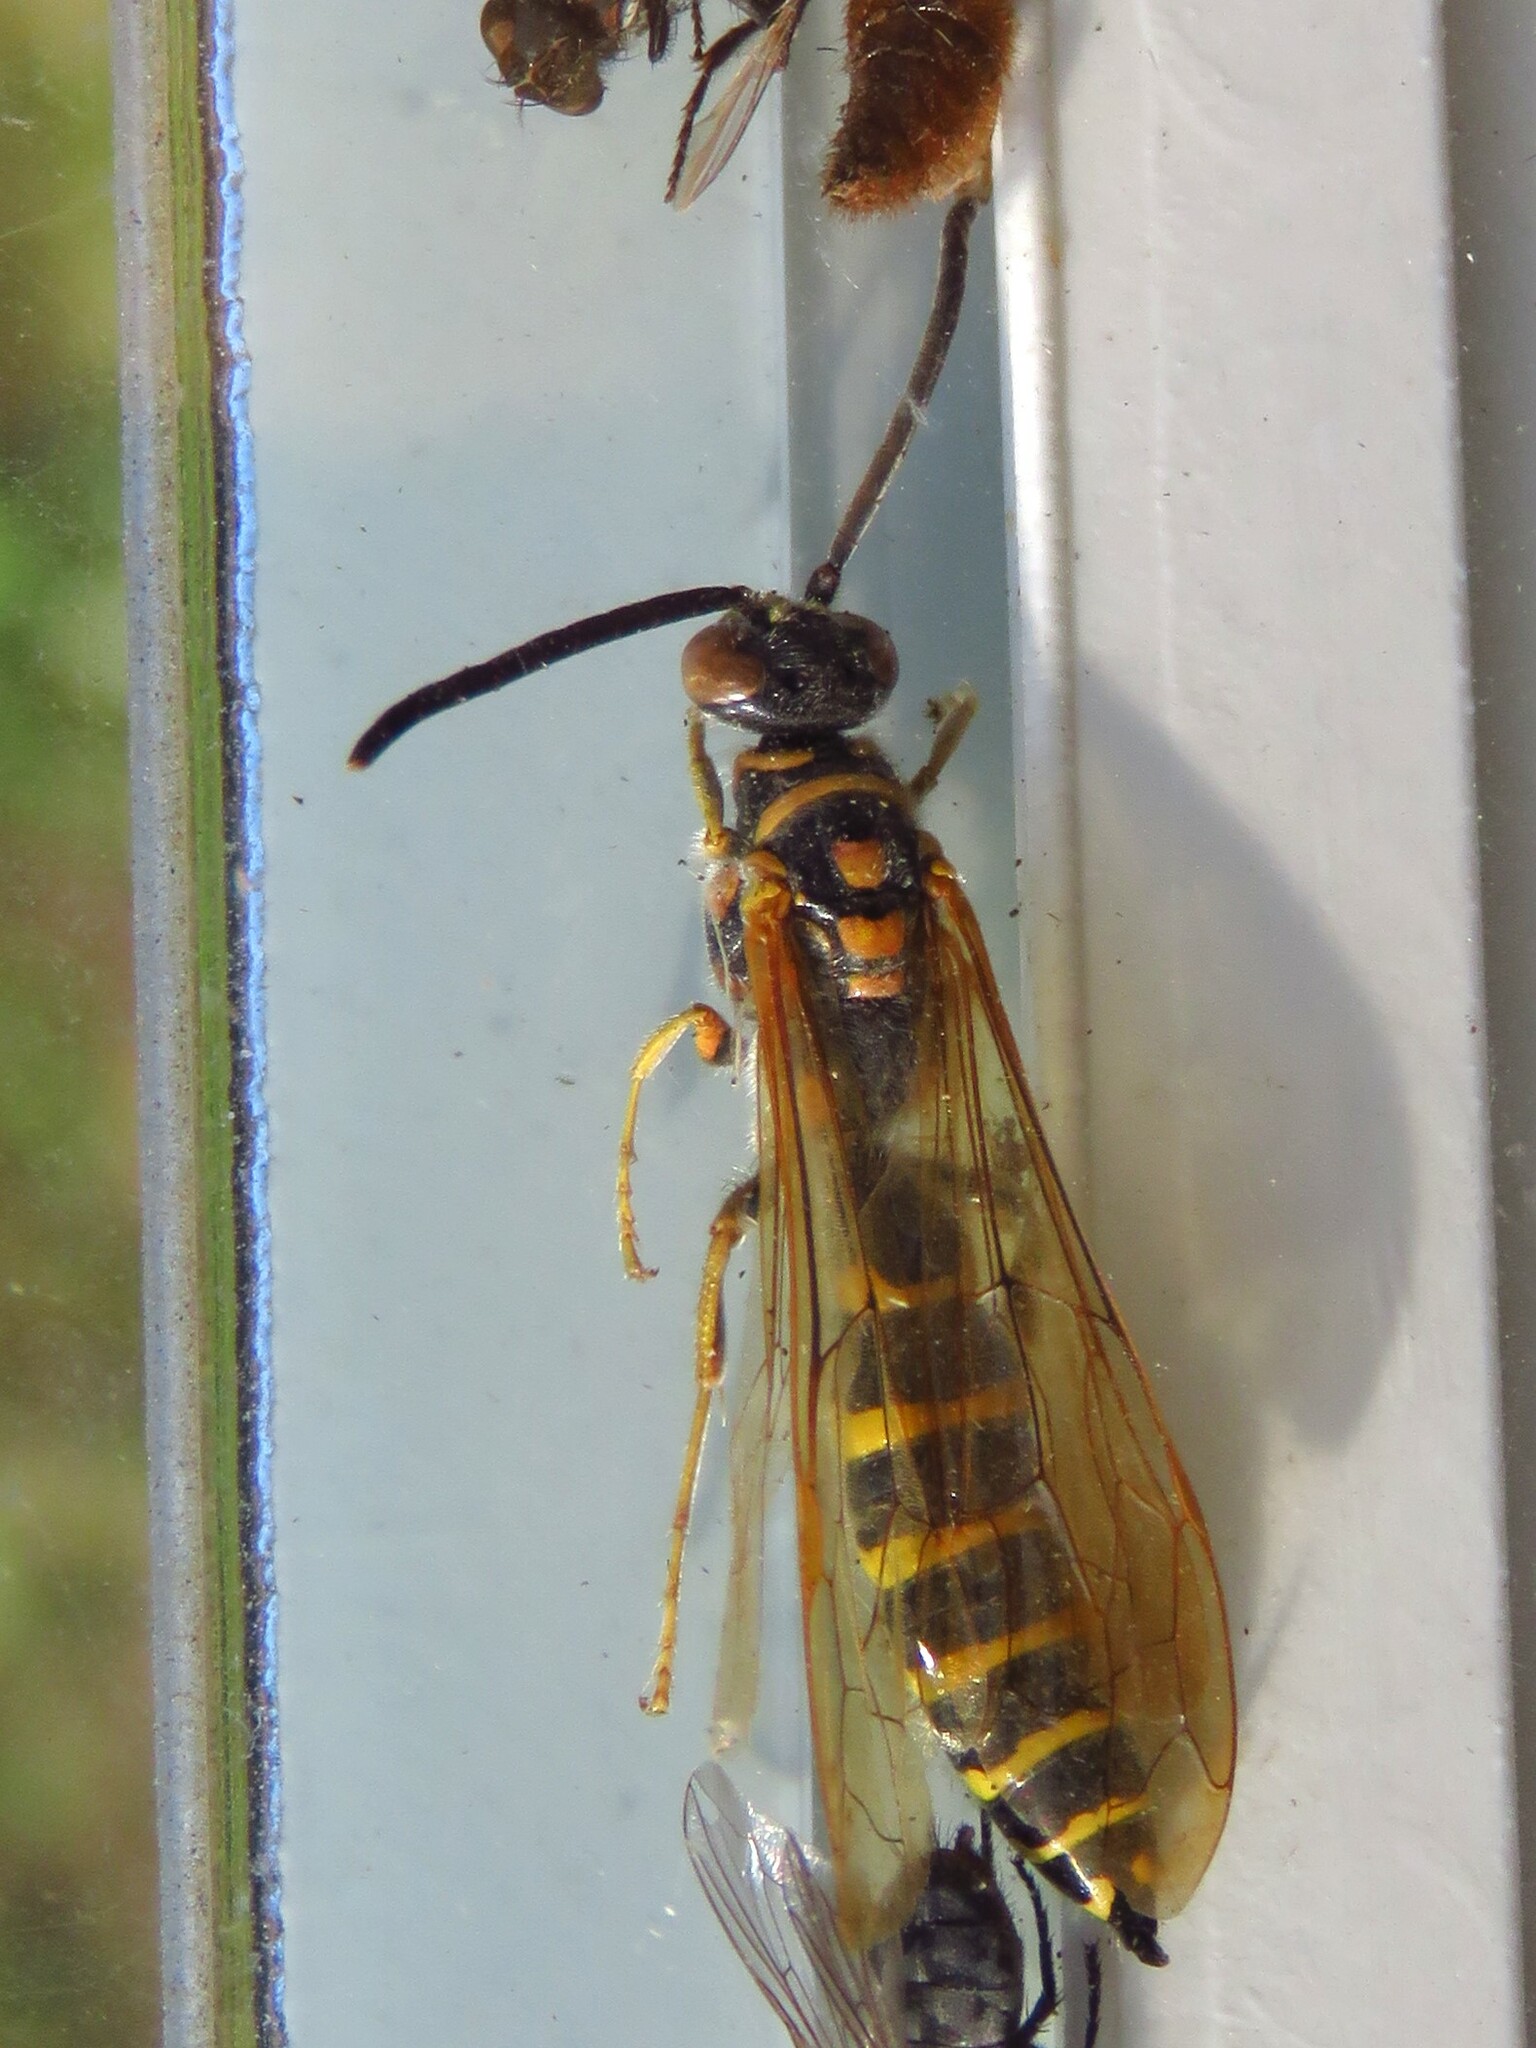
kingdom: Animalia
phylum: Arthropoda
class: Insecta
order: Hymenoptera
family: Tiphiidae
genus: Myzinum
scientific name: Myzinum quinquecinctum
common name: Five-banded thynnid wasp
